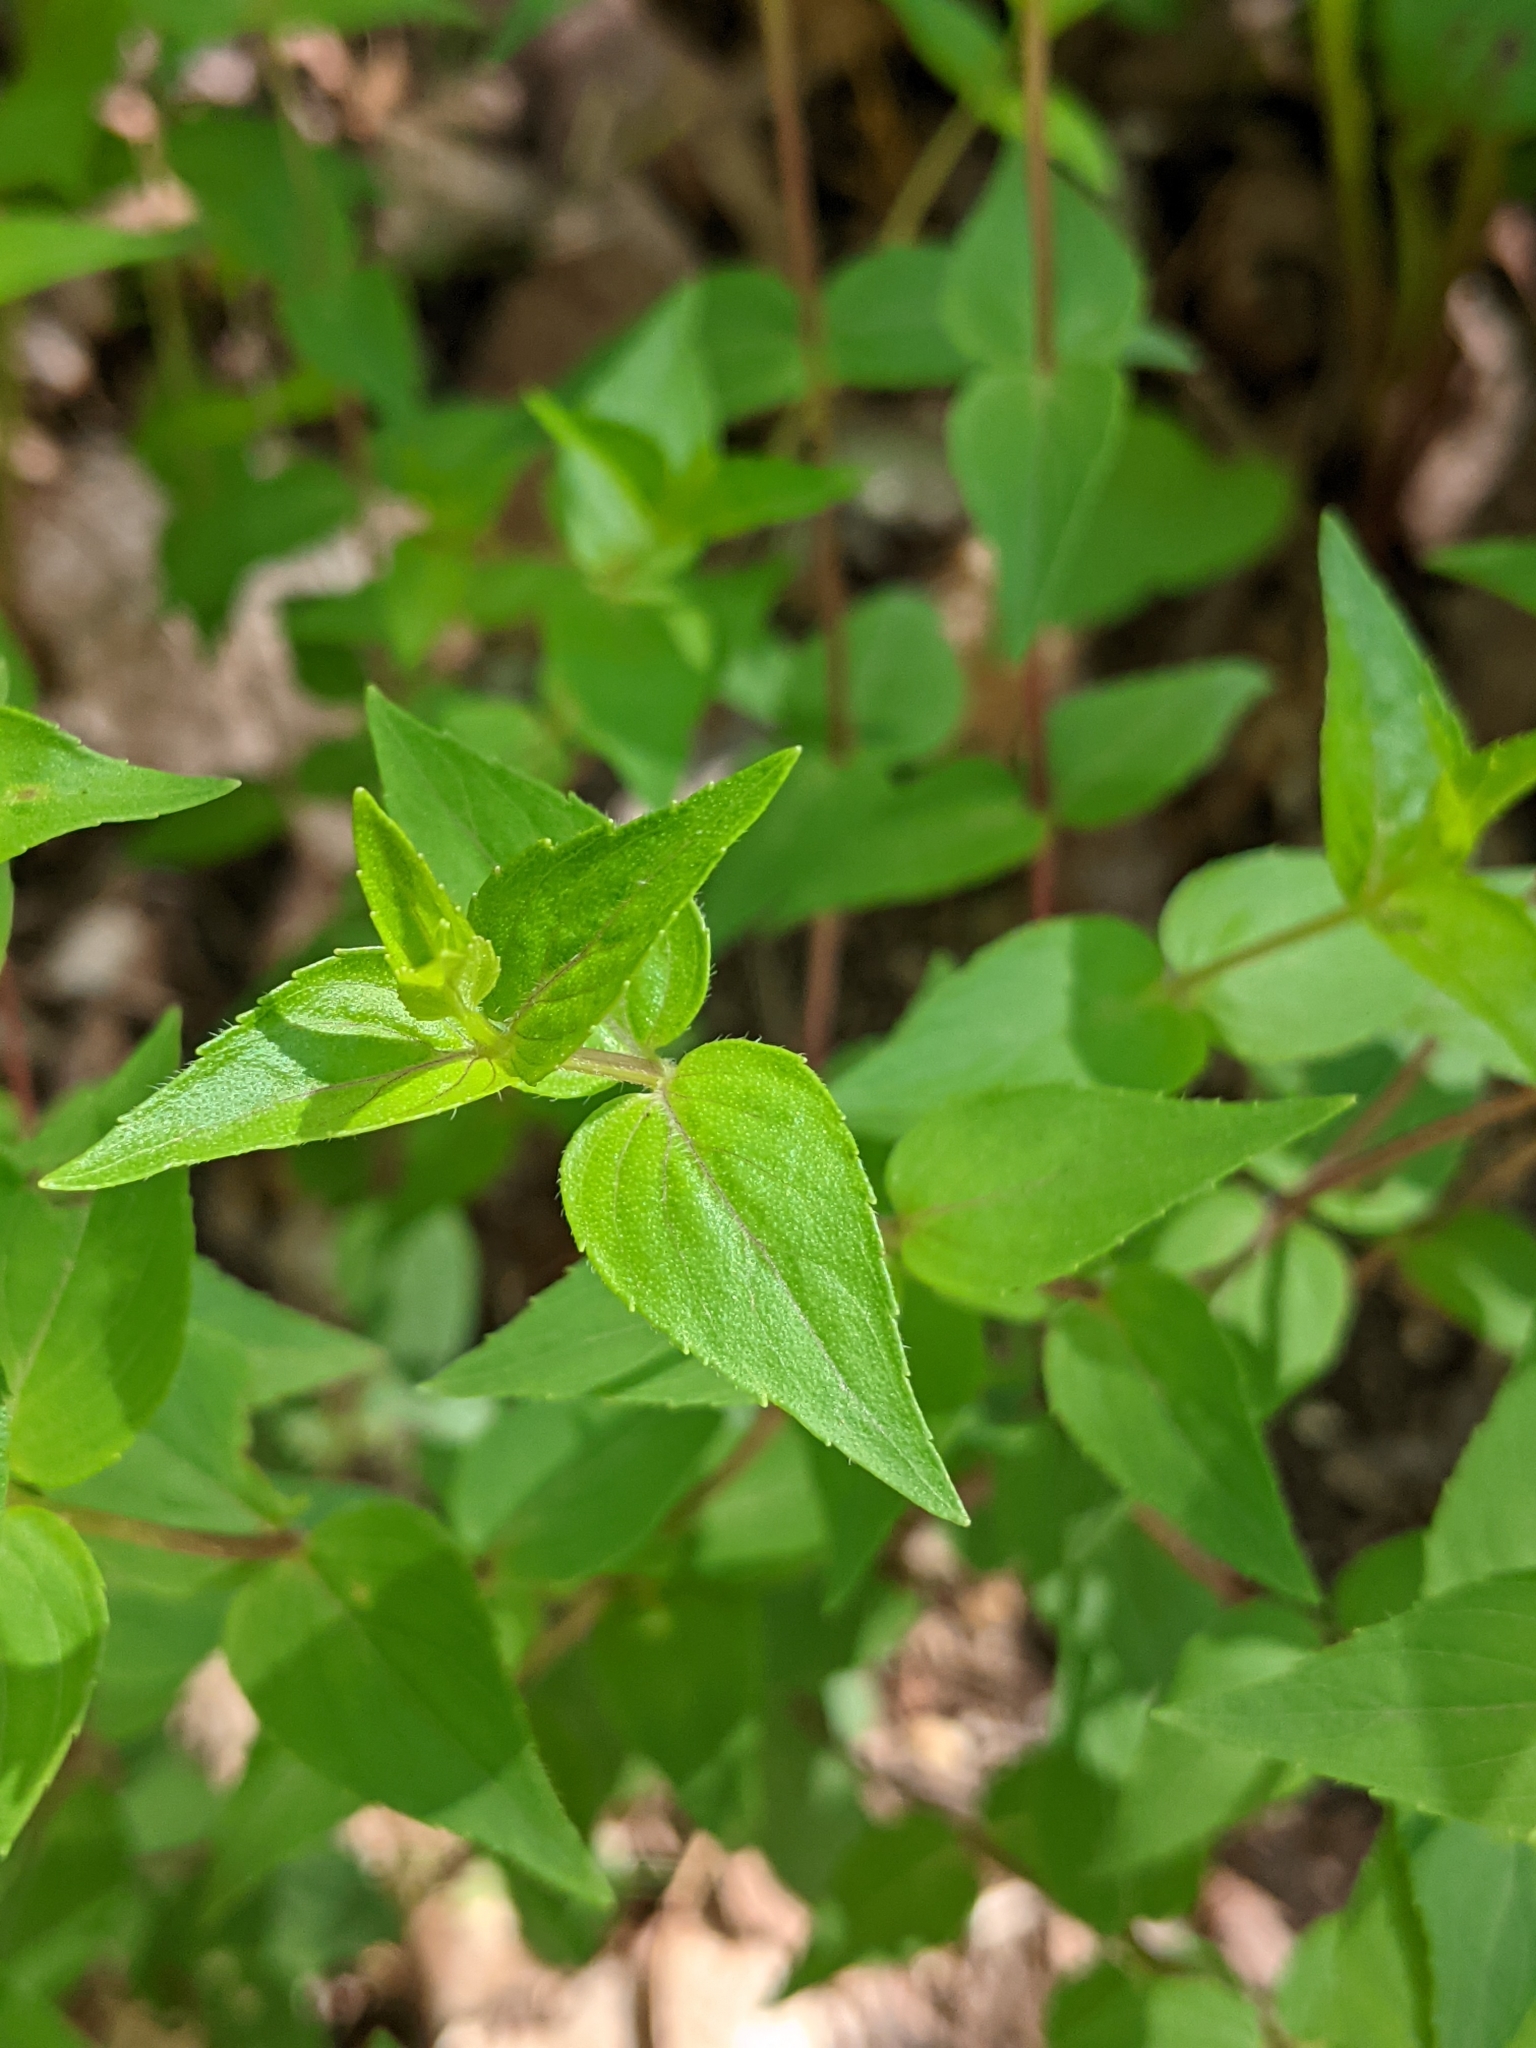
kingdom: Plantae
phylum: Tracheophyta
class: Magnoliopsida
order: Lamiales
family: Lamiaceae
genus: Cunila
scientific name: Cunila origanoides
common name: American dittany
